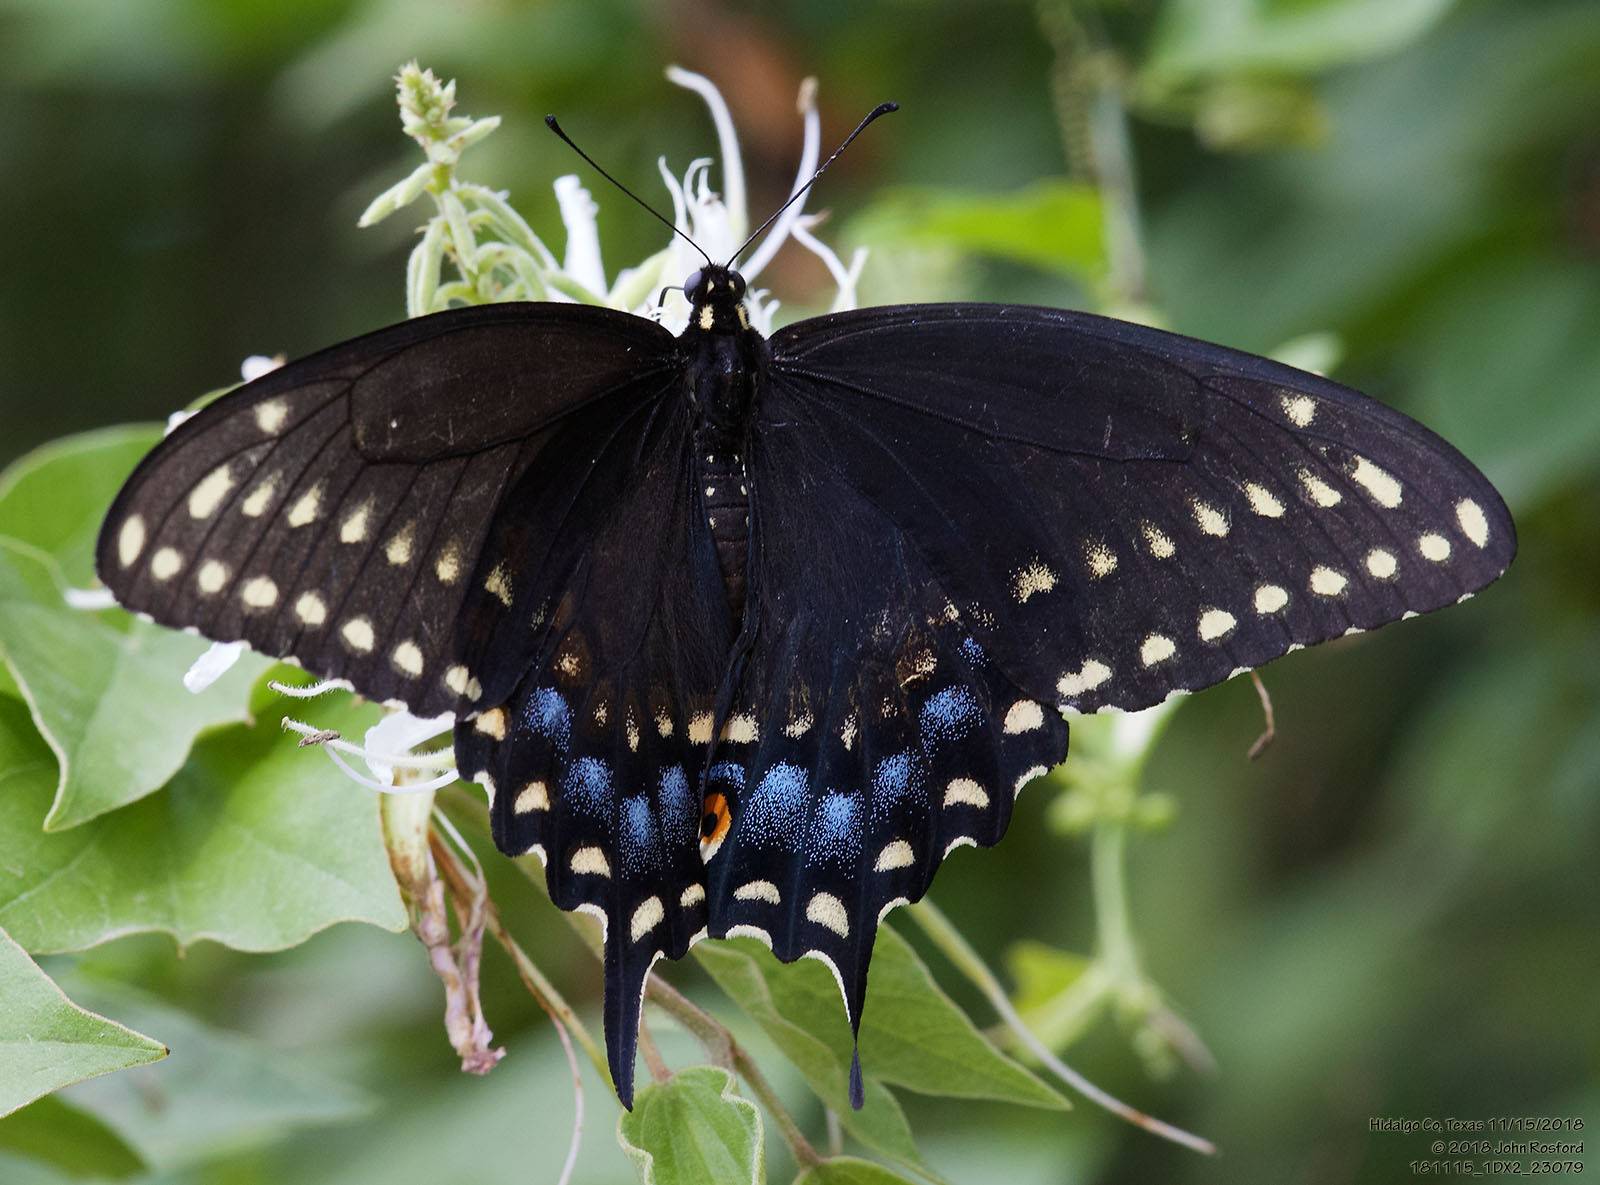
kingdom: Animalia
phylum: Arthropoda
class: Insecta
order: Lepidoptera
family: Papilionidae
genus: Papilio
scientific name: Papilio polyxenes
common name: Black swallowtail
